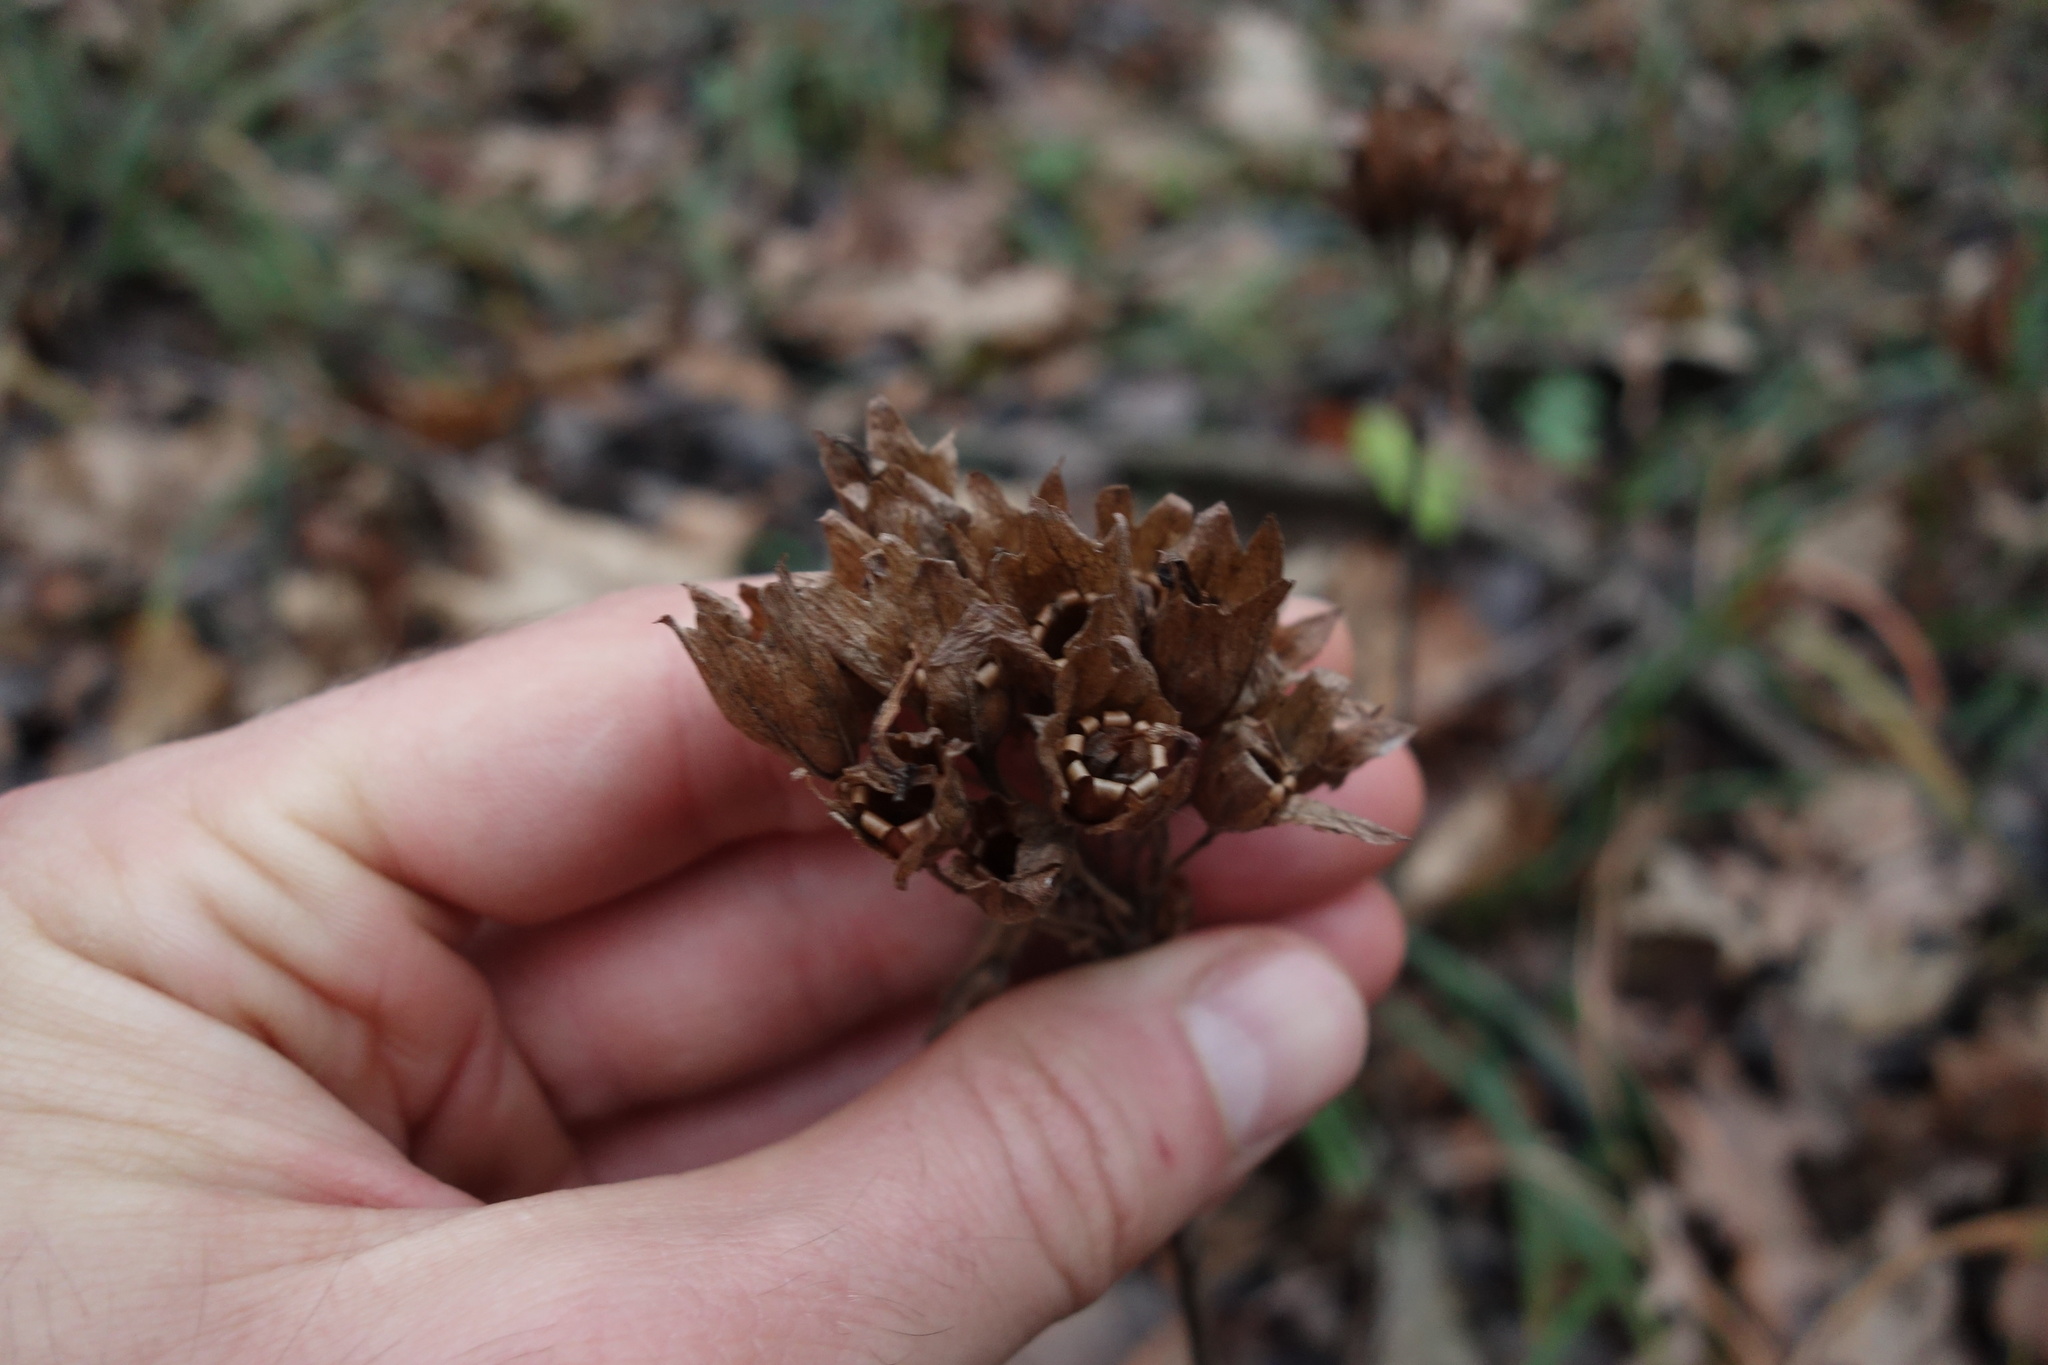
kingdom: Plantae
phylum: Tracheophyta
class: Magnoliopsida
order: Ericales
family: Primulaceae
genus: Primula
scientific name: Primula veris
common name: Cowslip
